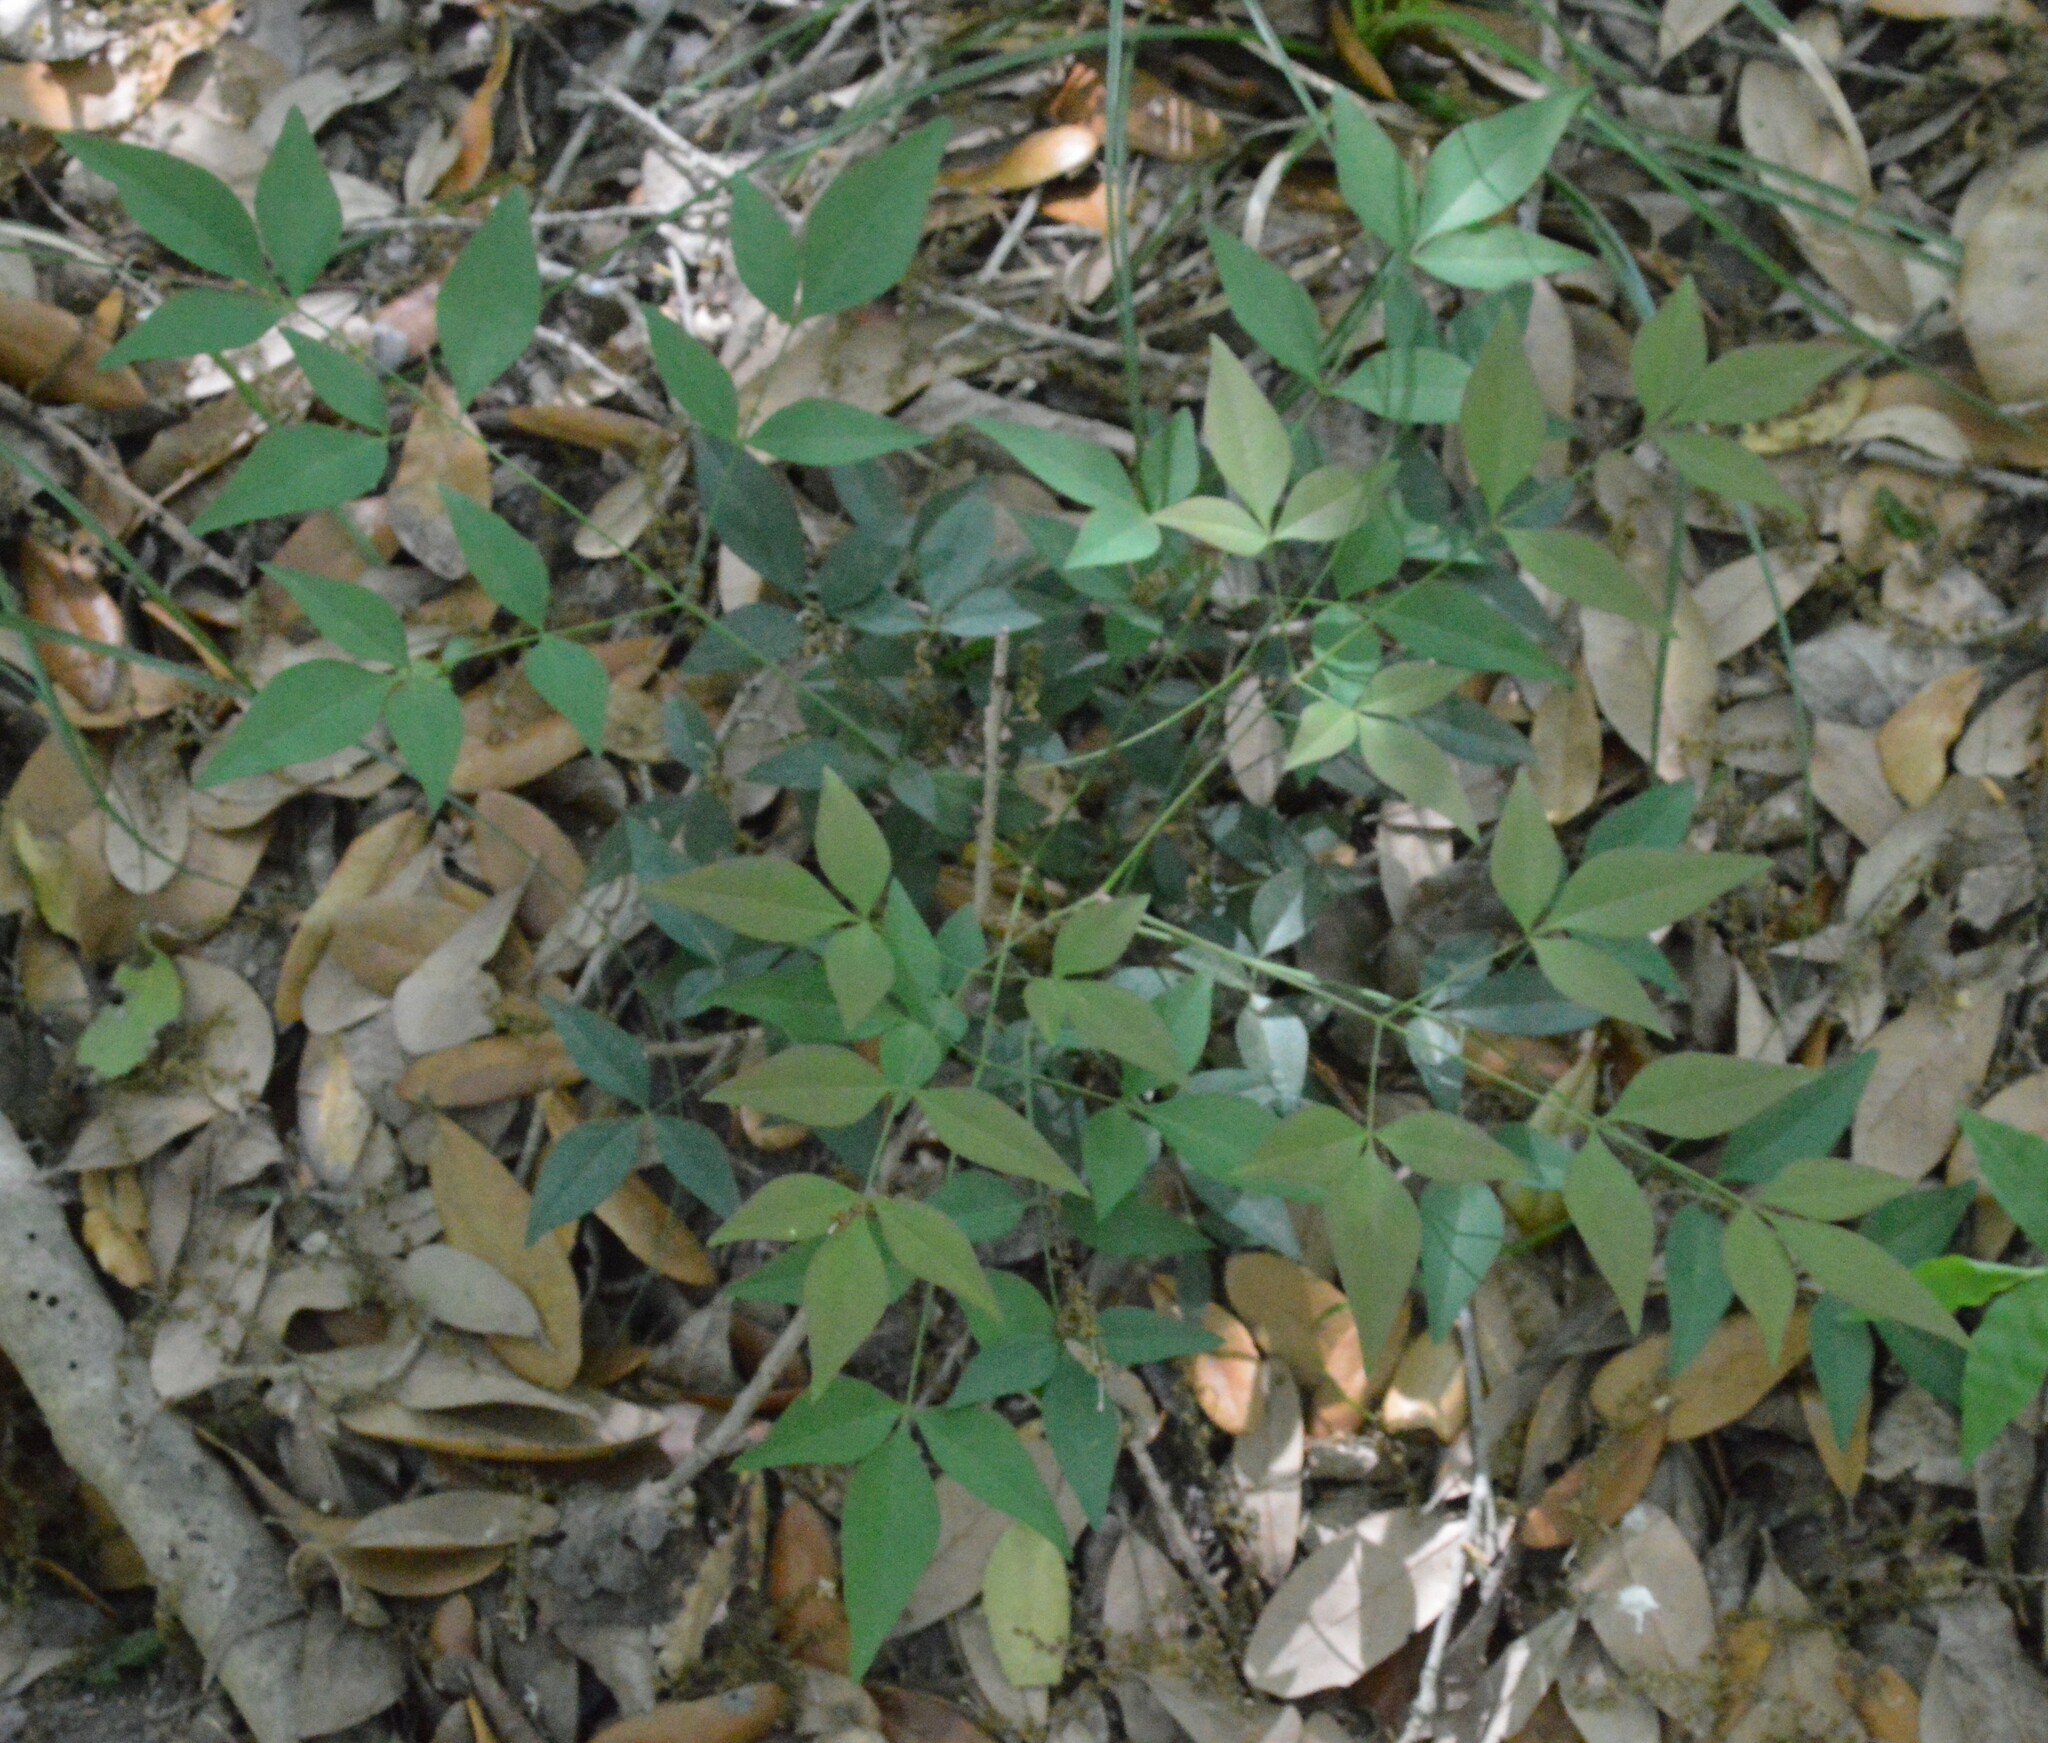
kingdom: Plantae
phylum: Tracheophyta
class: Magnoliopsida
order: Ranunculales
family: Berberidaceae
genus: Nandina
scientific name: Nandina domestica
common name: Sacred bamboo
